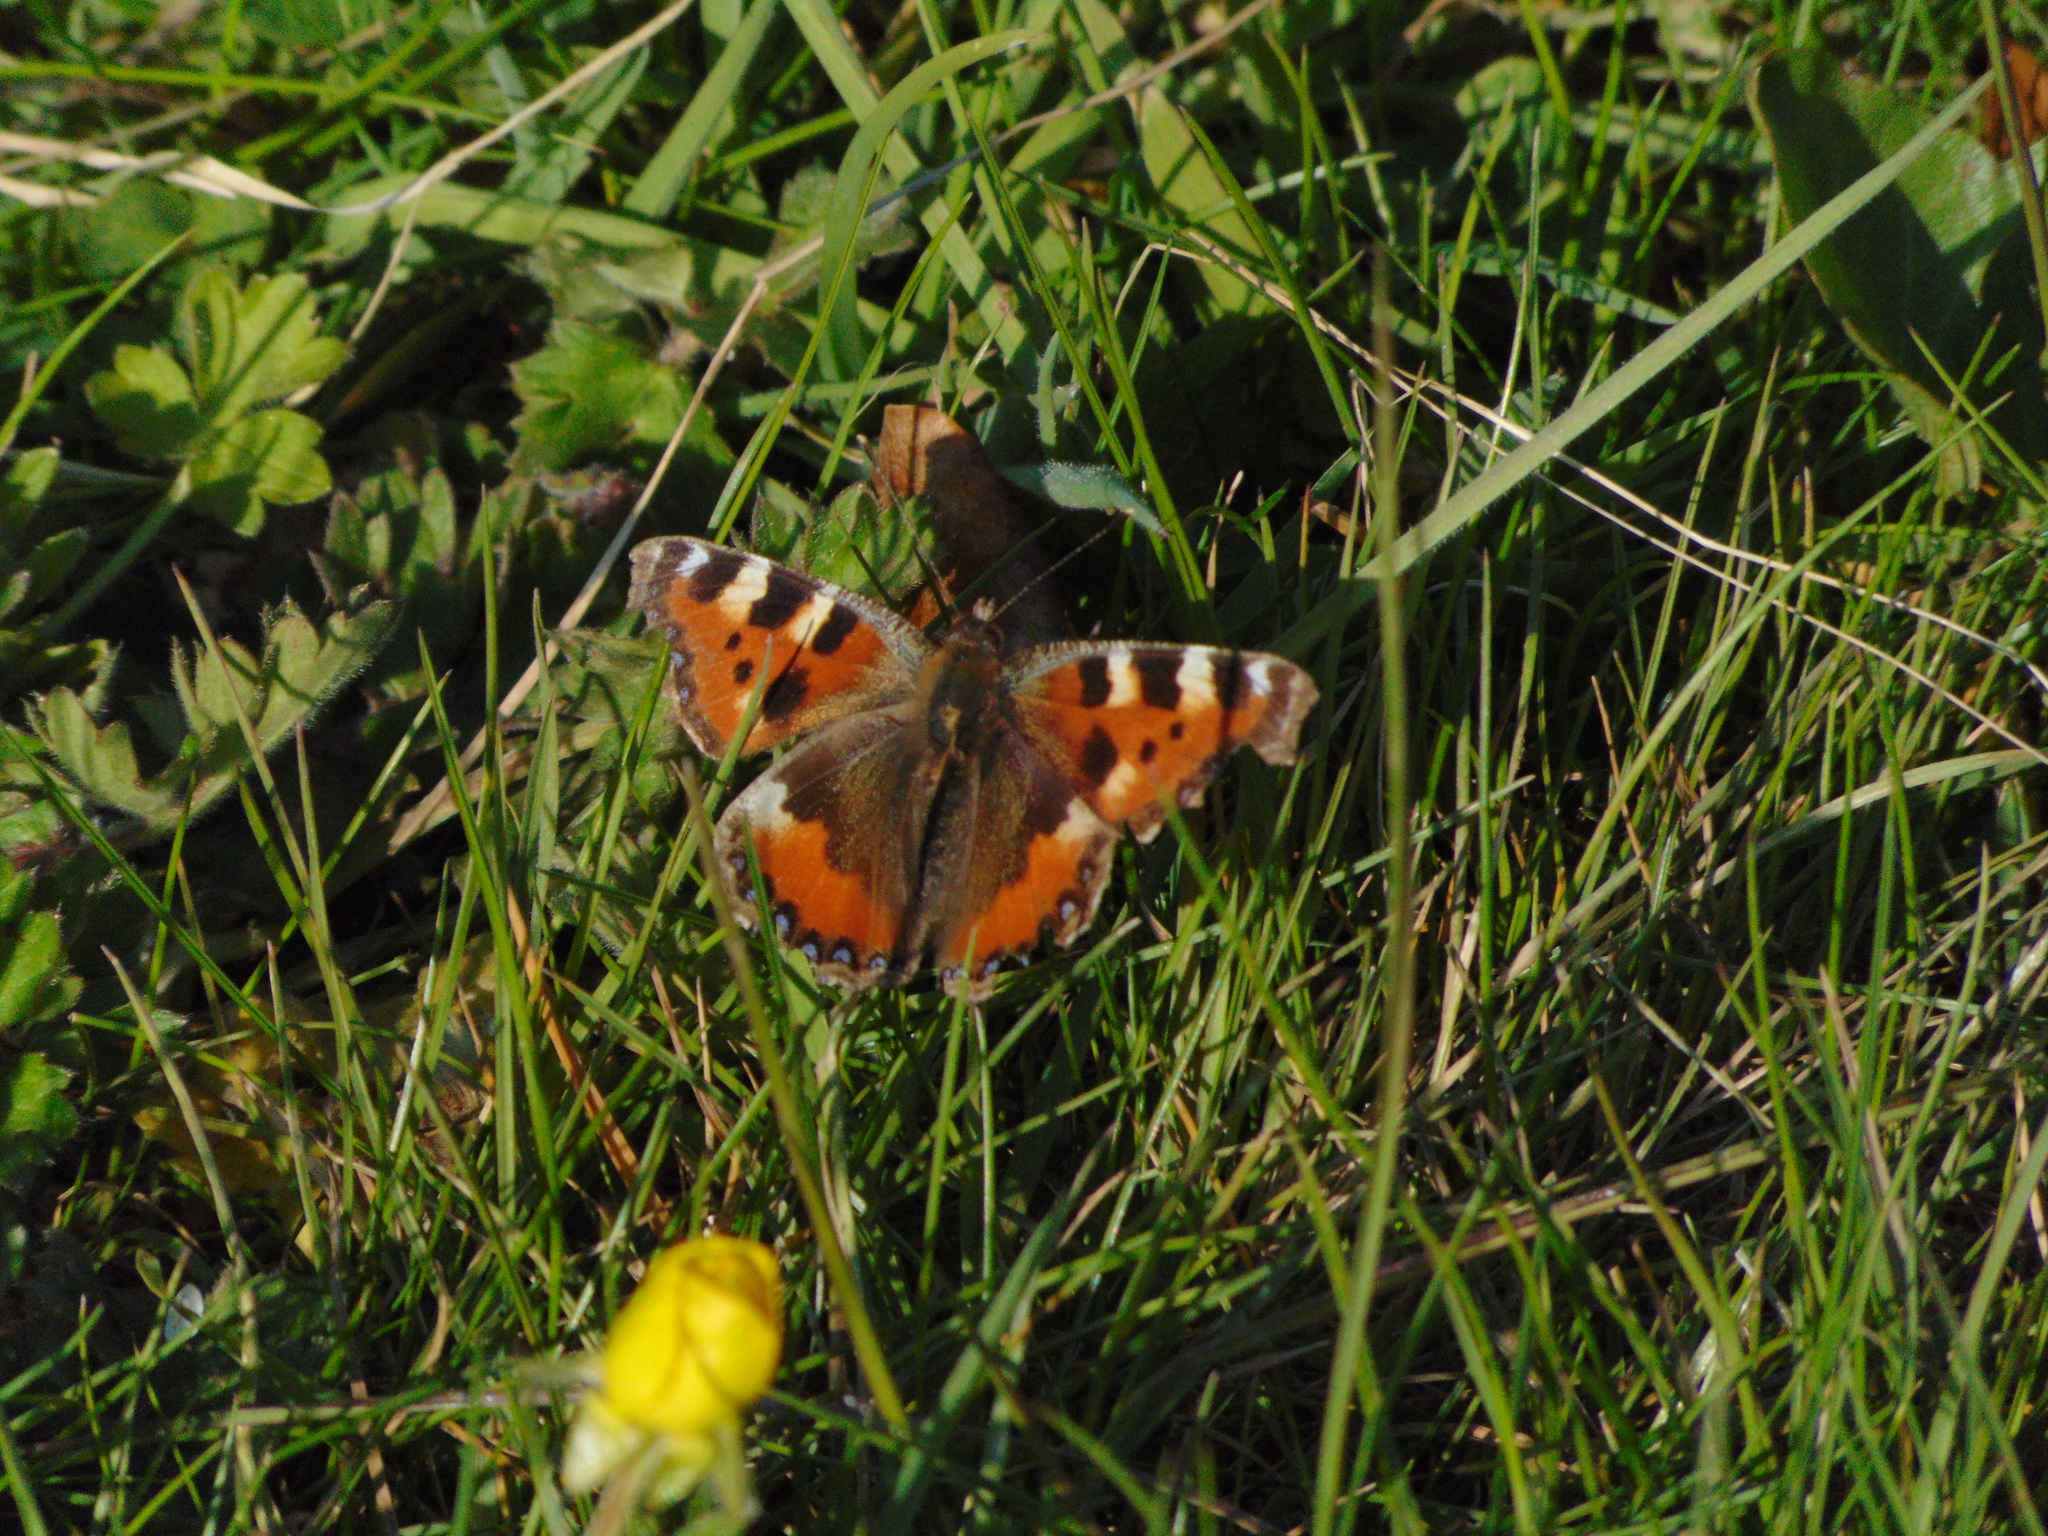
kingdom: Animalia
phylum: Arthropoda
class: Insecta
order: Lepidoptera
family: Nymphalidae
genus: Aglais
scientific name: Aglais urticae
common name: Small tortoiseshell
